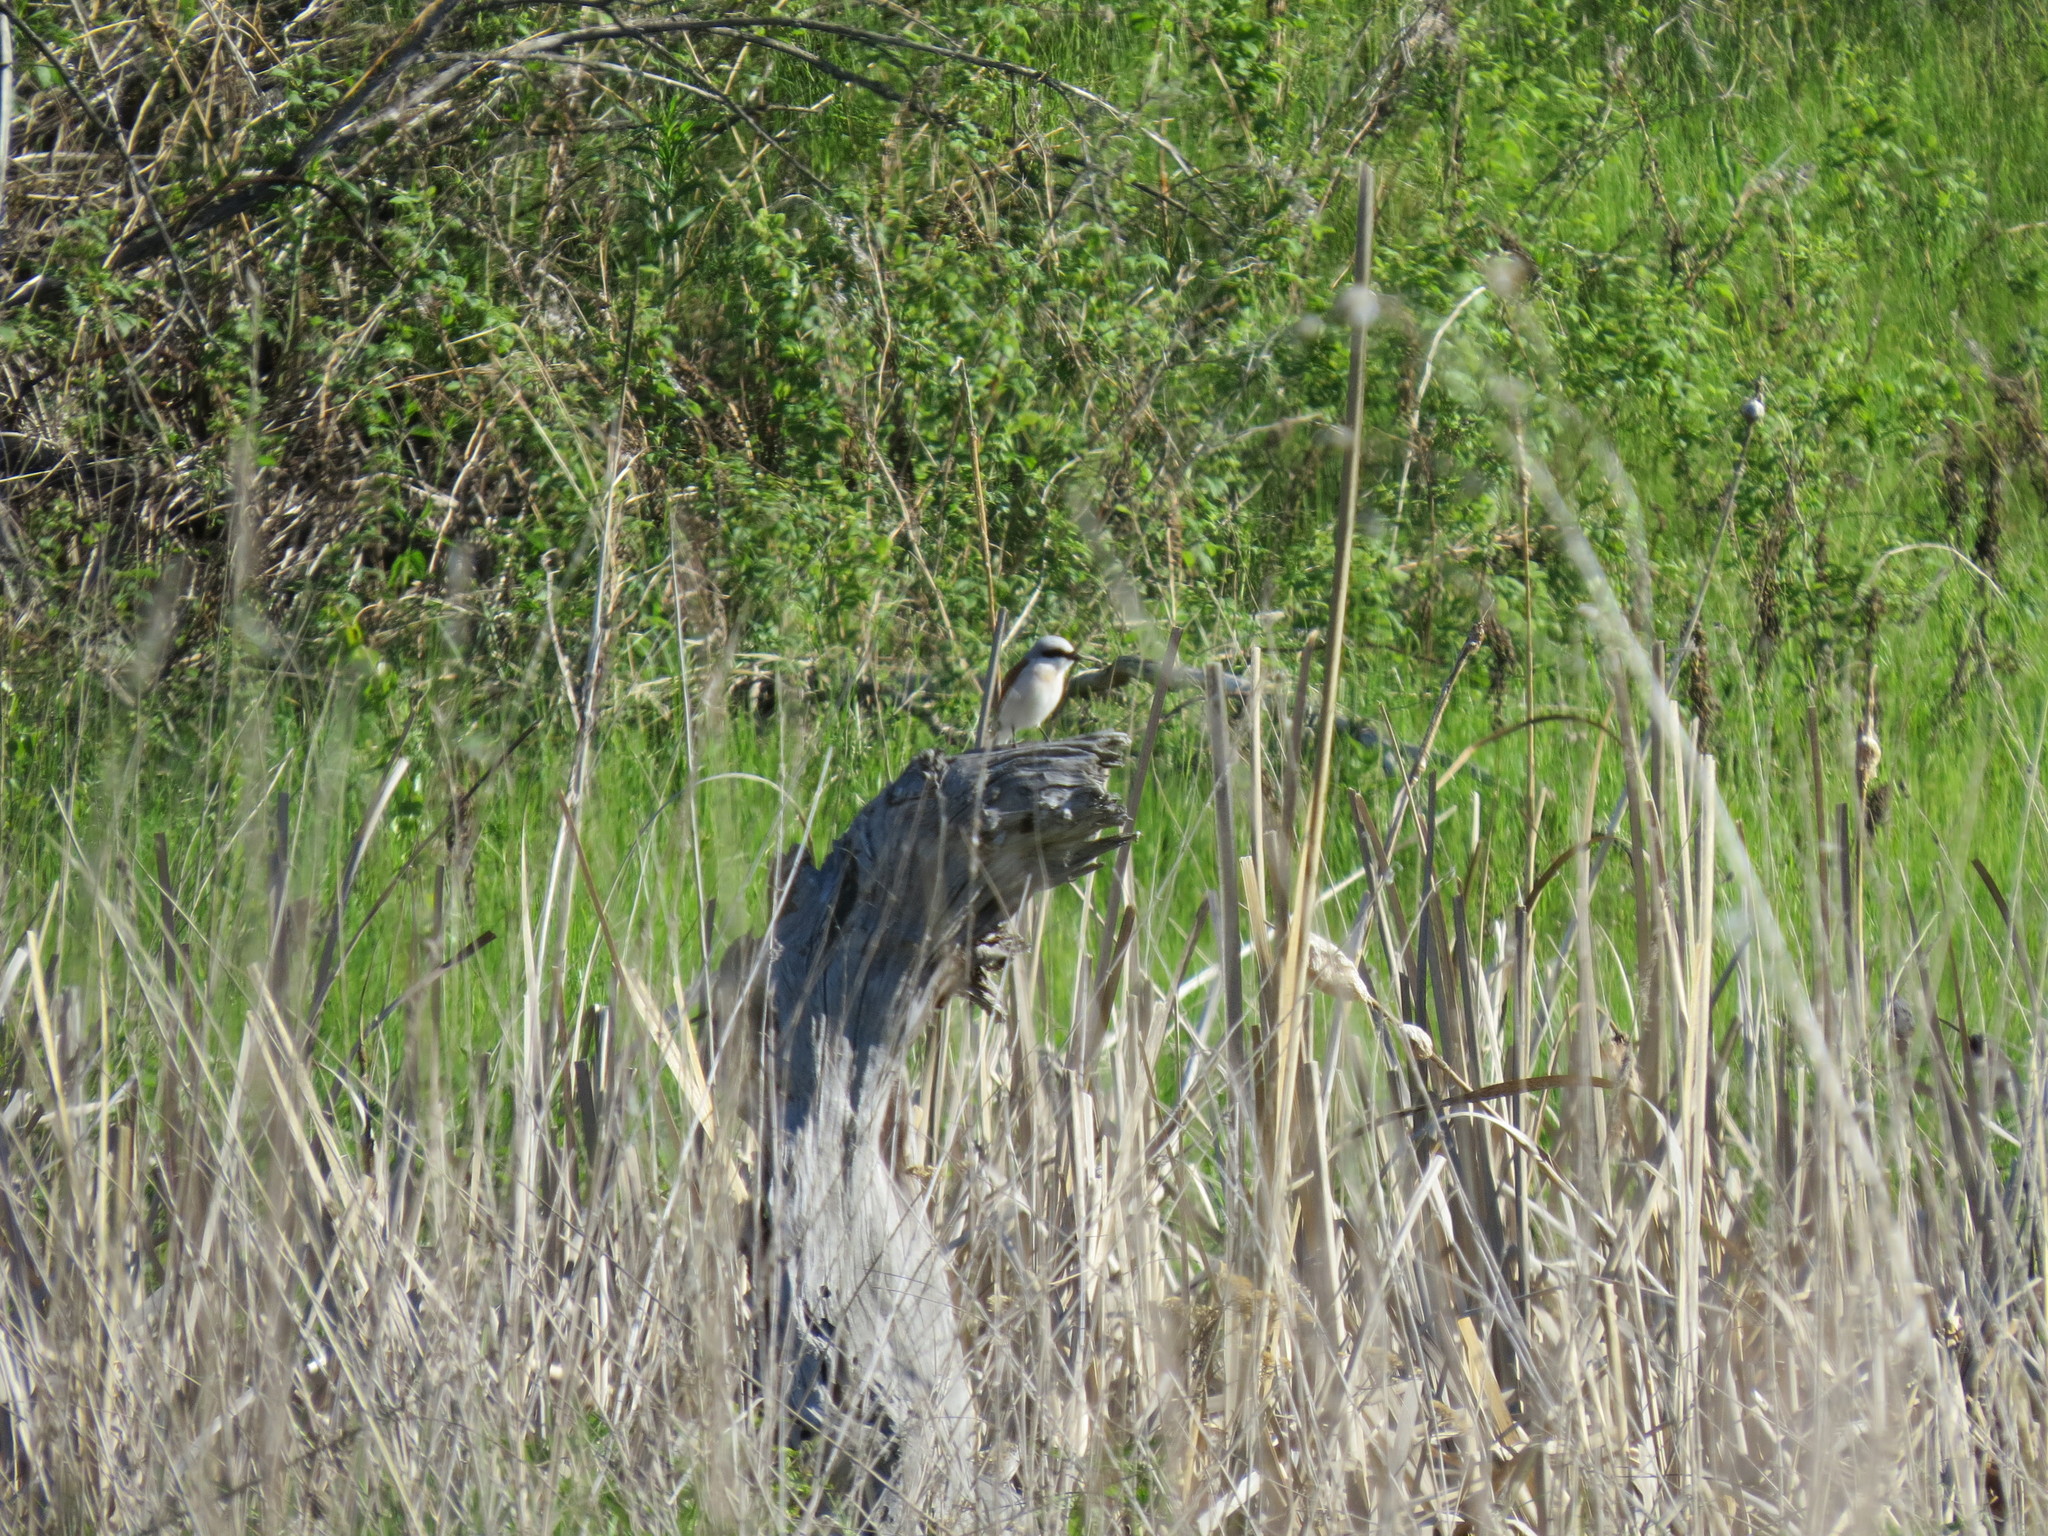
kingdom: Animalia
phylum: Chordata
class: Aves
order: Passeriformes
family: Laniidae
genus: Lanius
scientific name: Lanius collurio
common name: Red-backed shrike
